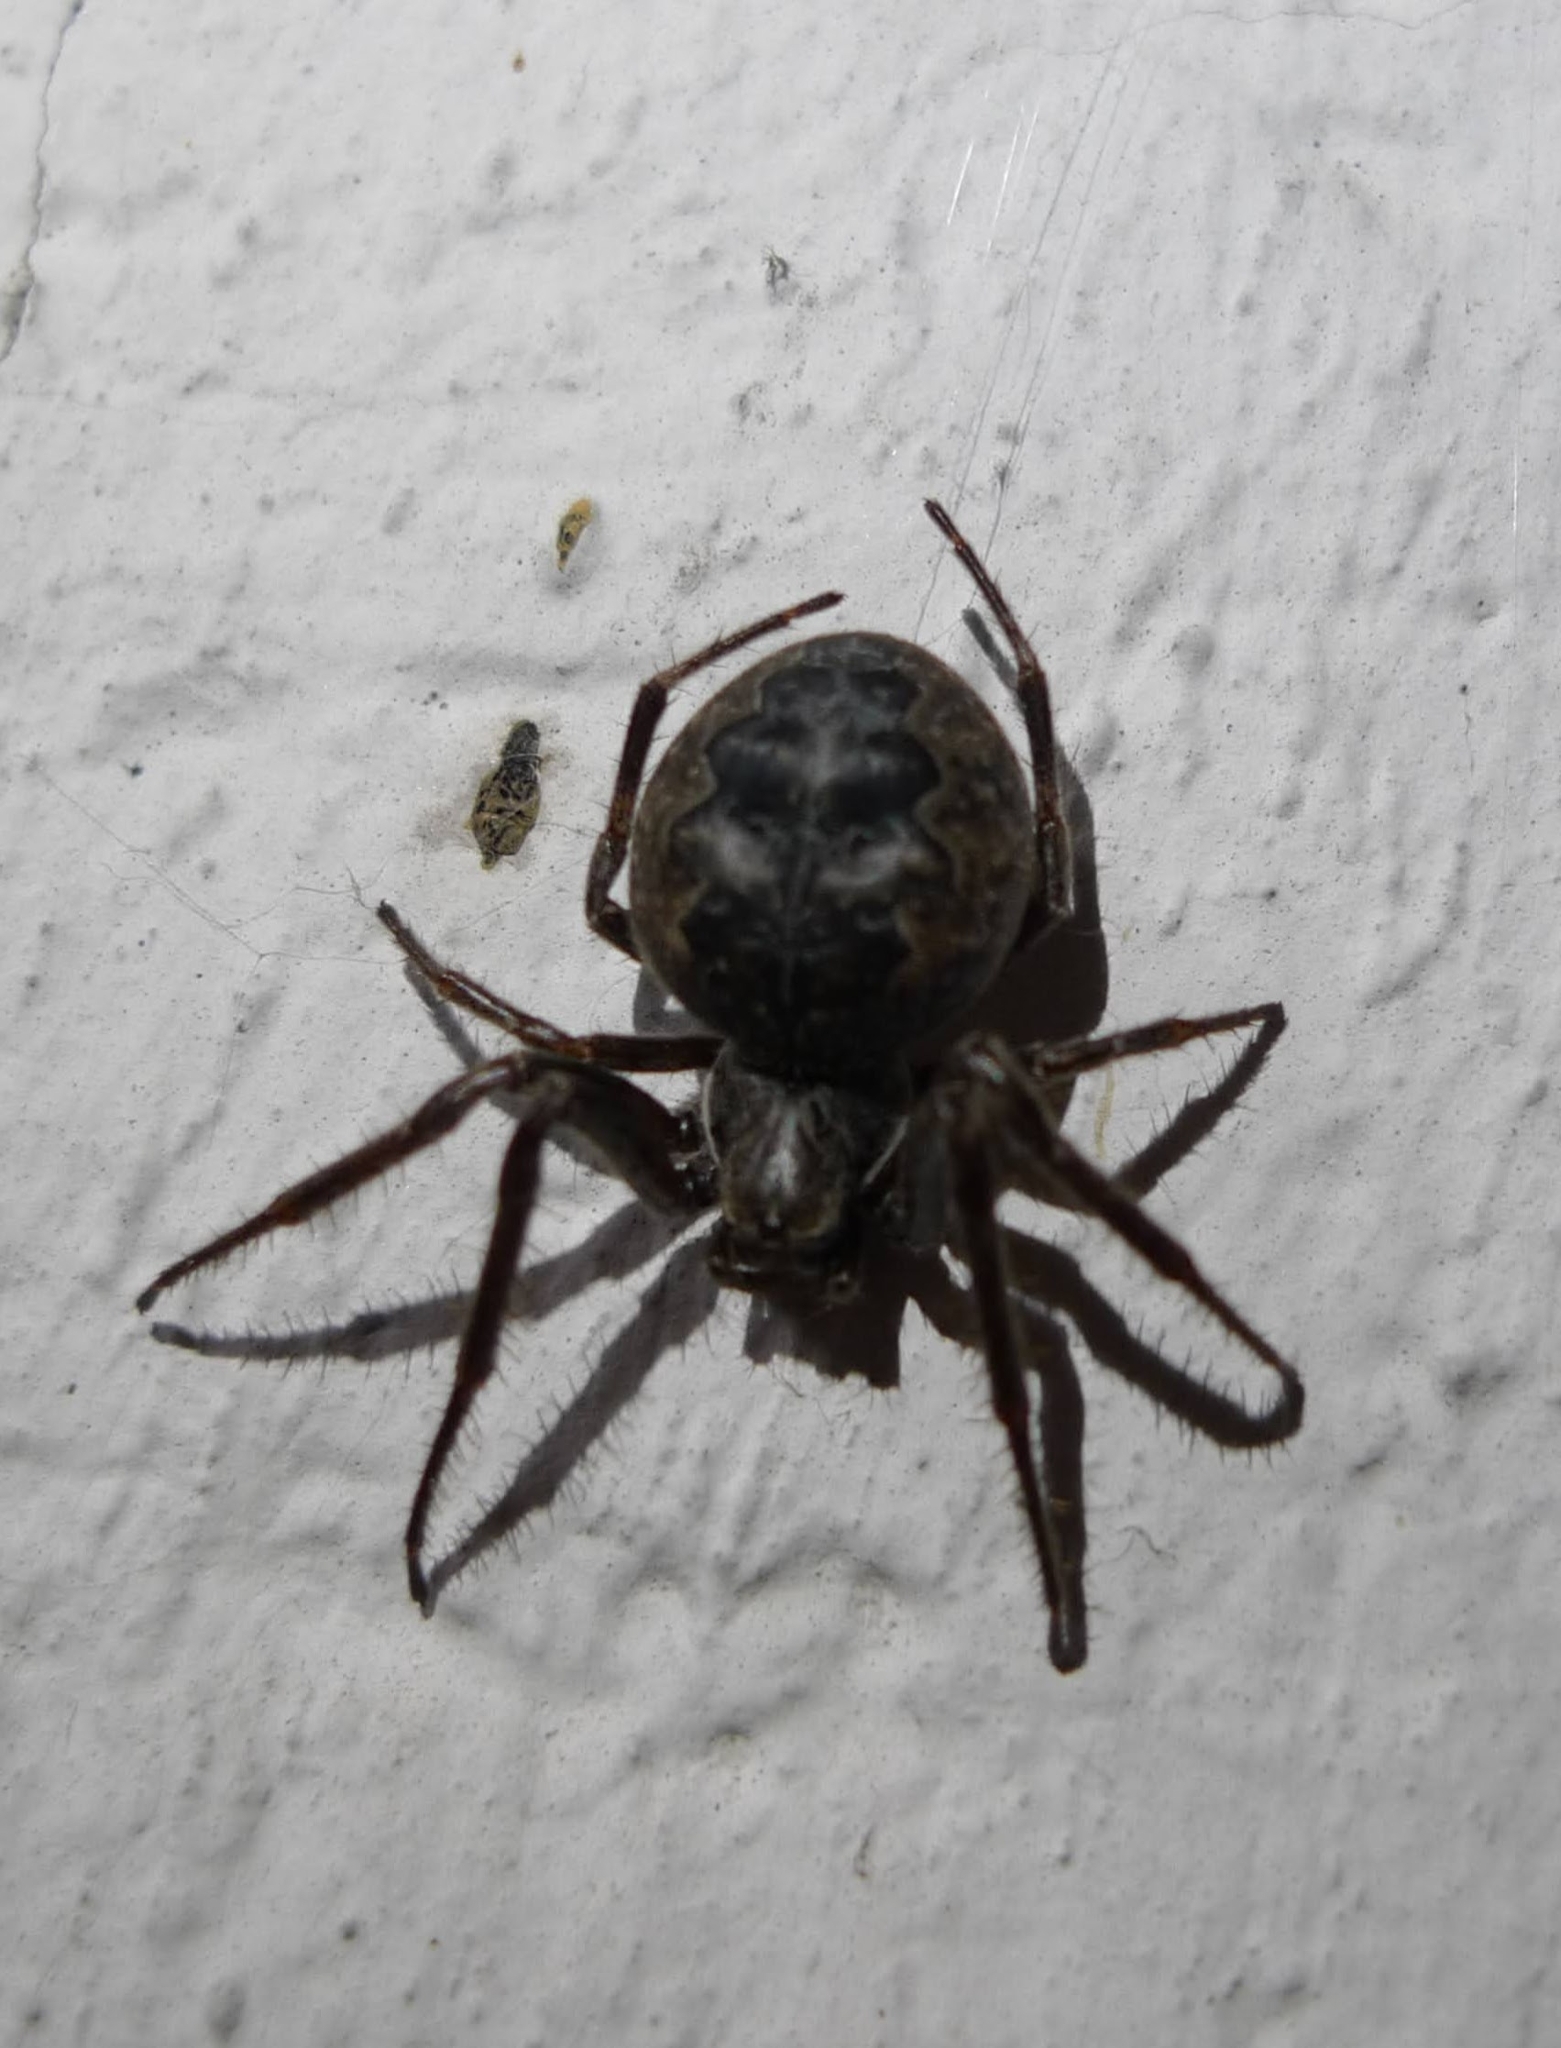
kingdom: Animalia
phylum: Arthropoda
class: Arachnida
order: Araneae
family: Araneidae
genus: Larinioides
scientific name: Larinioides ixobolus
